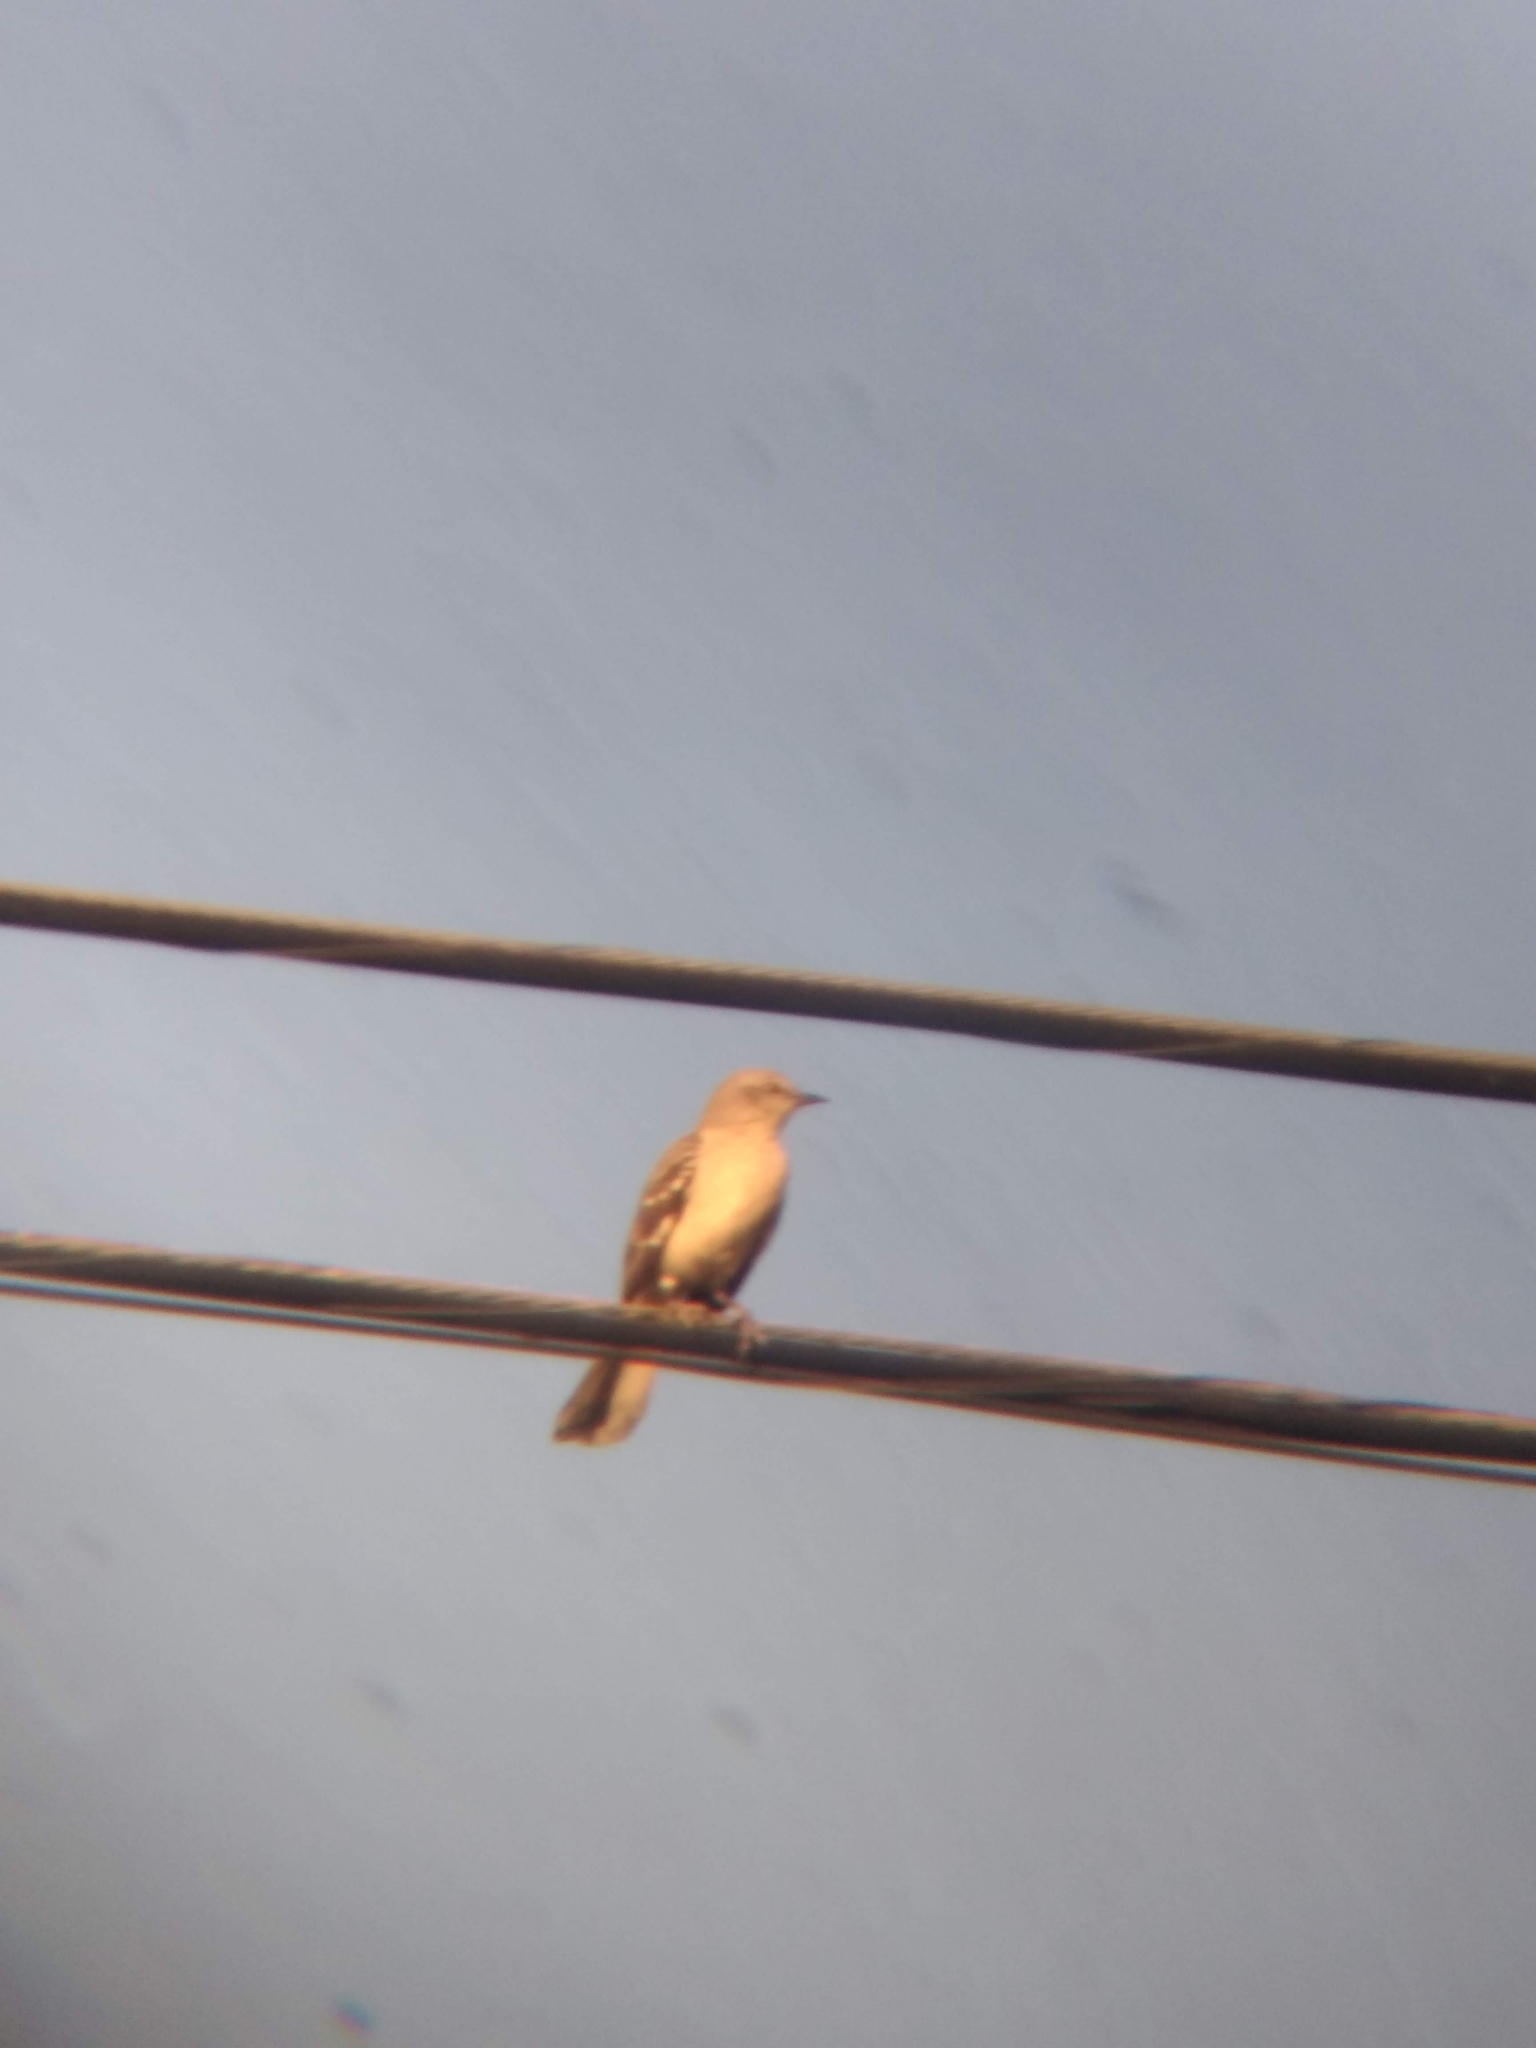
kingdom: Animalia
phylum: Chordata
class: Aves
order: Passeriformes
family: Mimidae
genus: Mimus
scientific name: Mimus polyglottos
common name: Northern mockingbird
